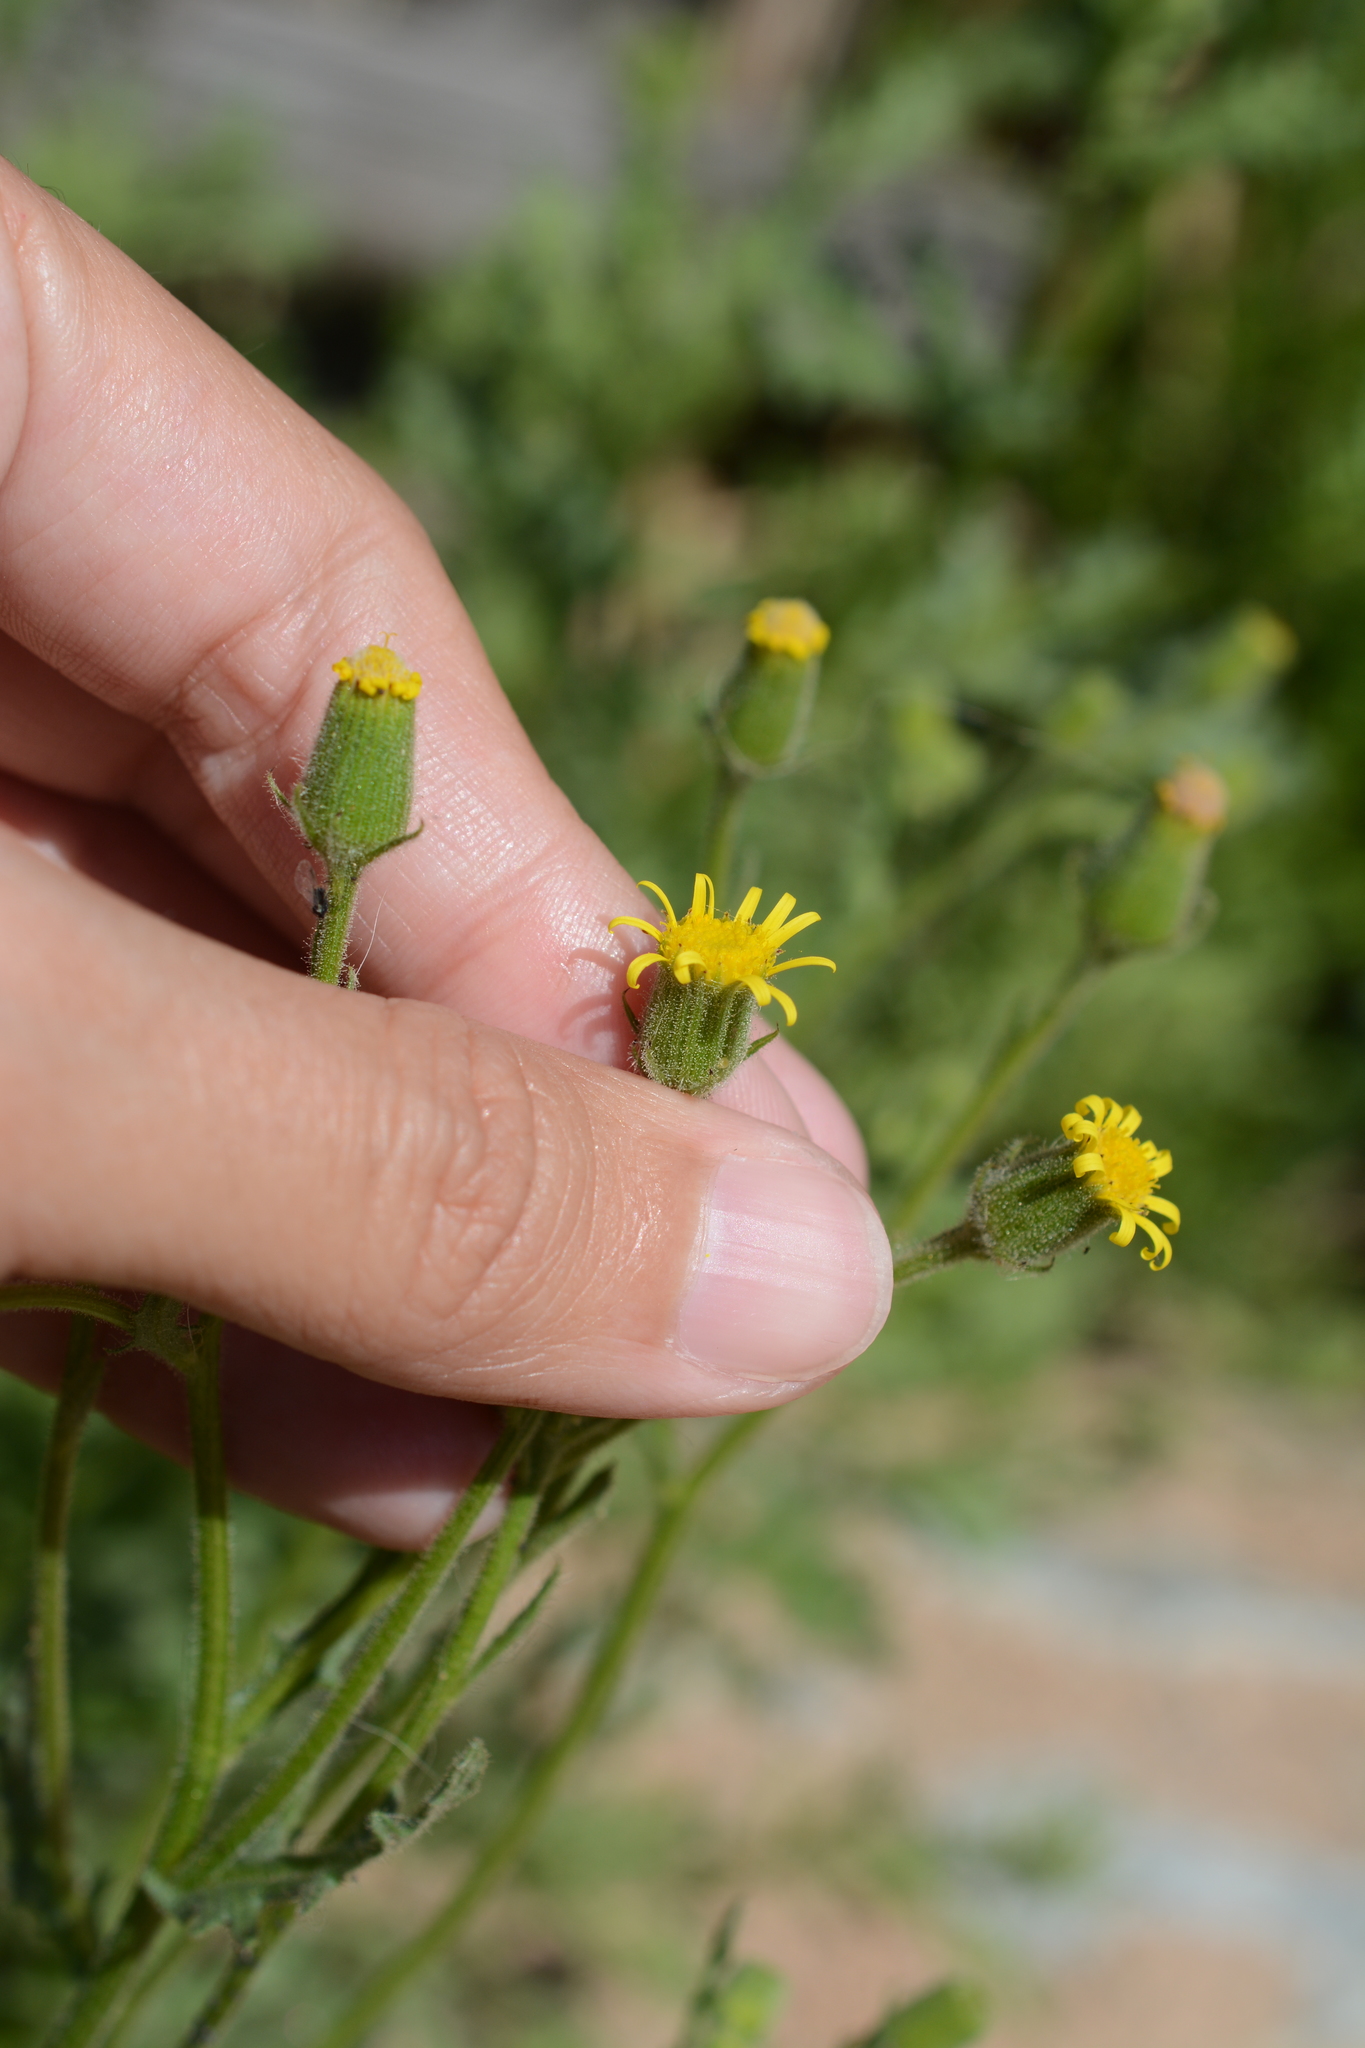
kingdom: Plantae
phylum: Tracheophyta
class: Magnoliopsida
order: Asterales
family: Asteraceae
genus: Senecio
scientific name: Senecio viscosus
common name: Sticky groundsel
